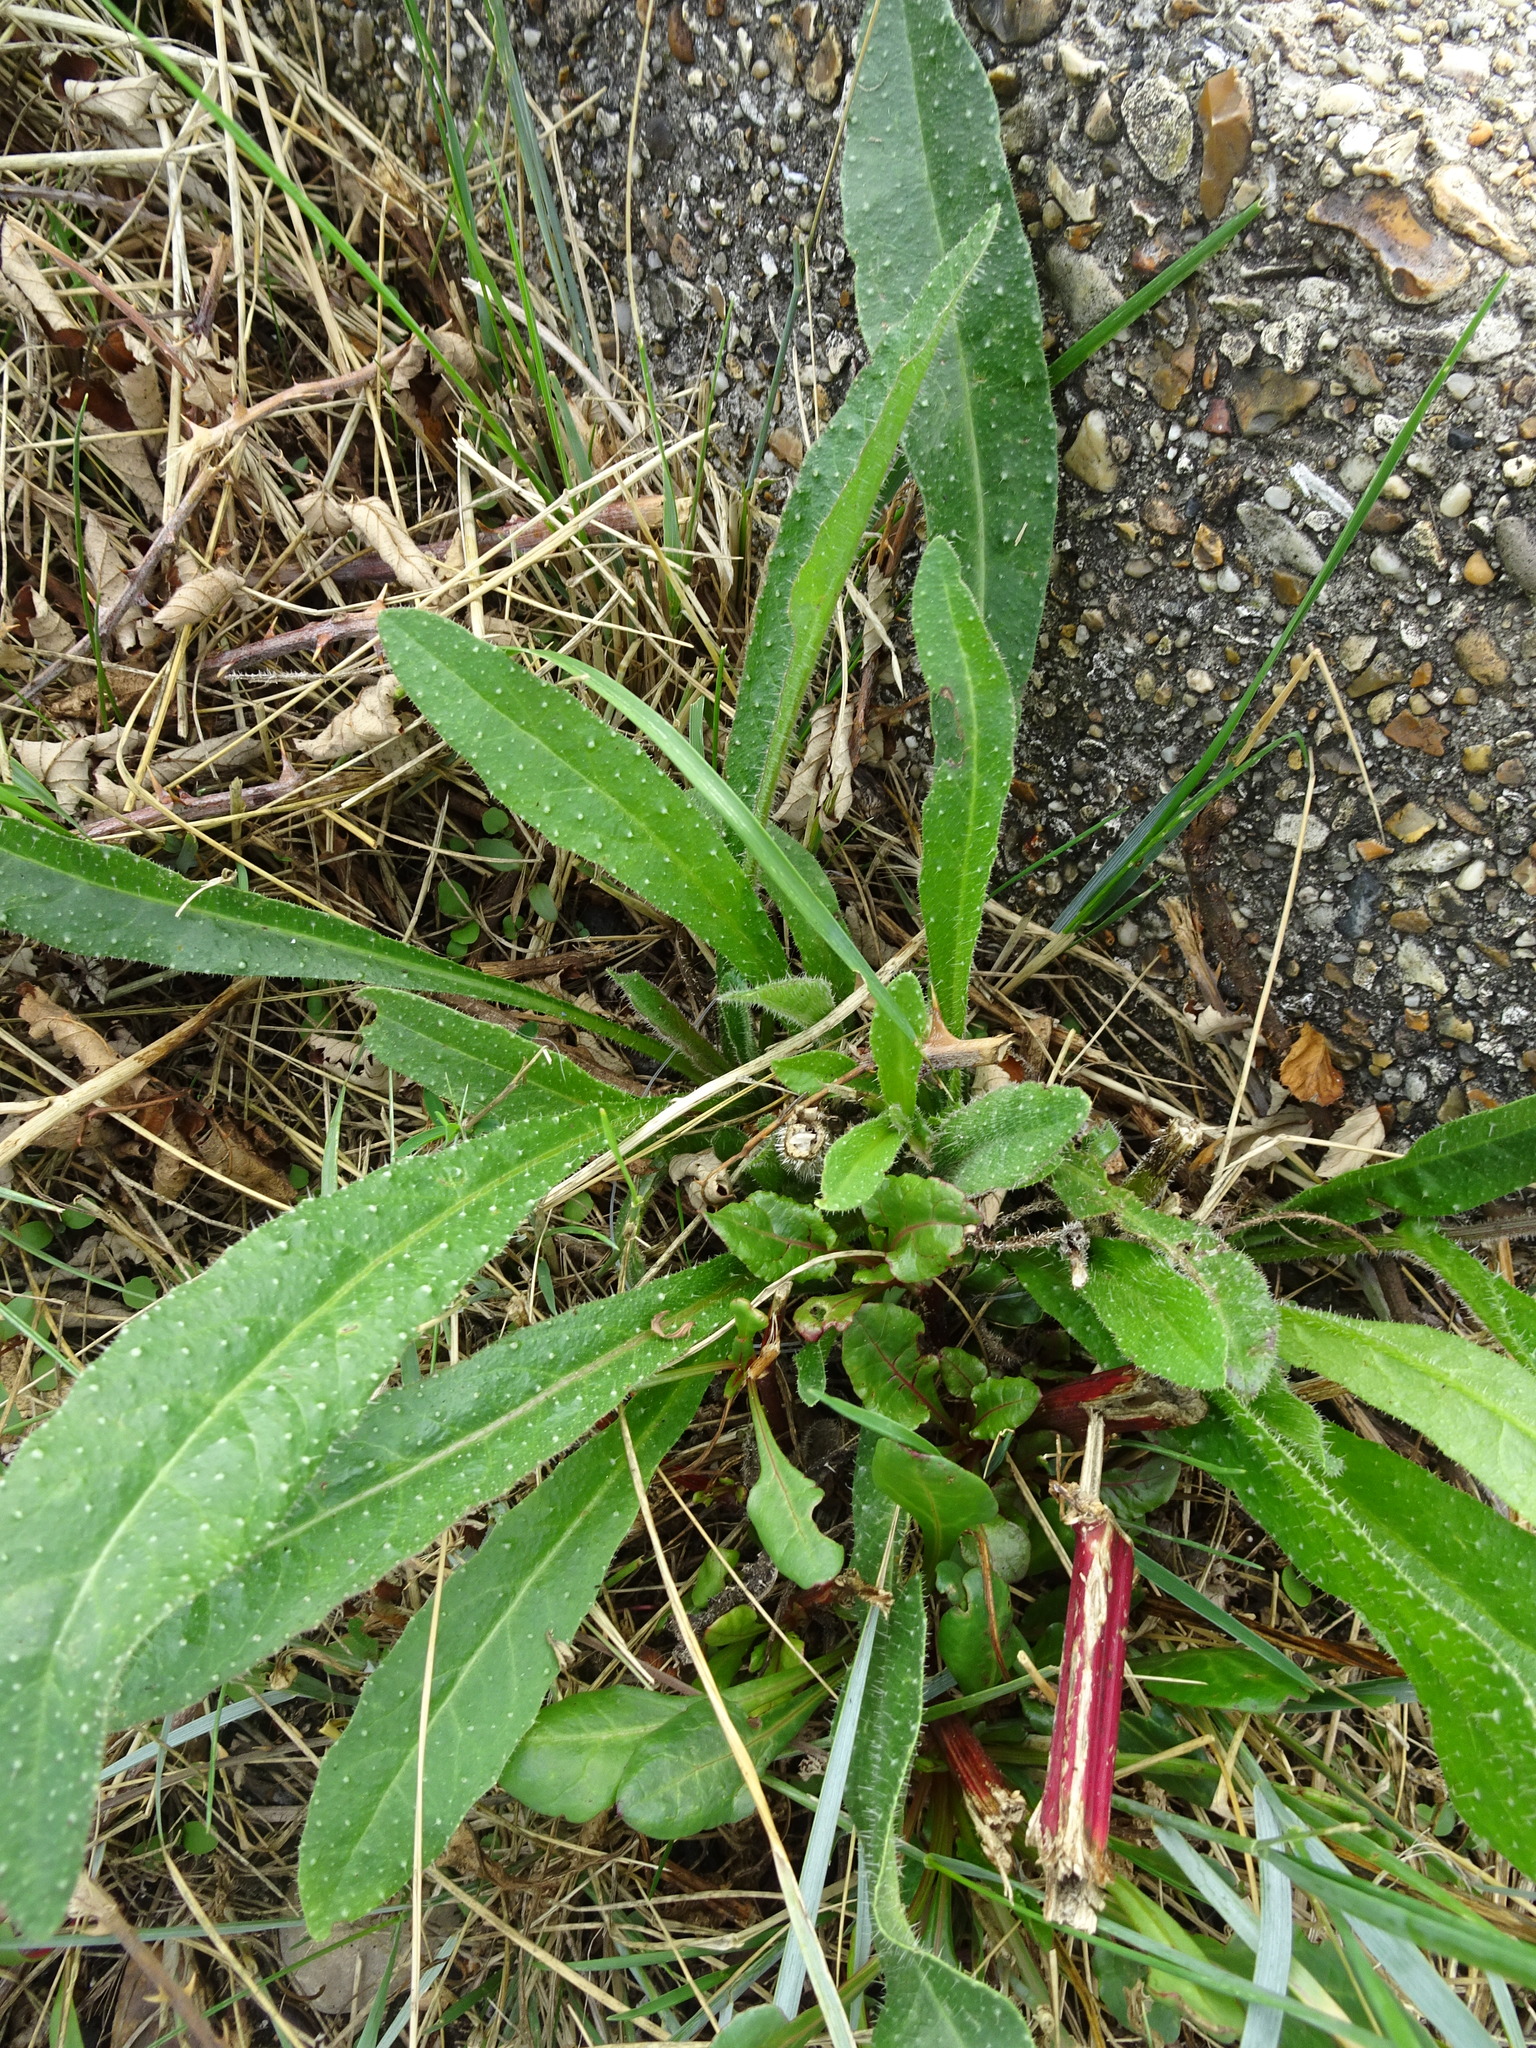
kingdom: Plantae
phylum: Tracheophyta
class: Magnoliopsida
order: Asterales
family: Asteraceae
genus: Helminthotheca
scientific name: Helminthotheca echioides
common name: Ox-tongue
